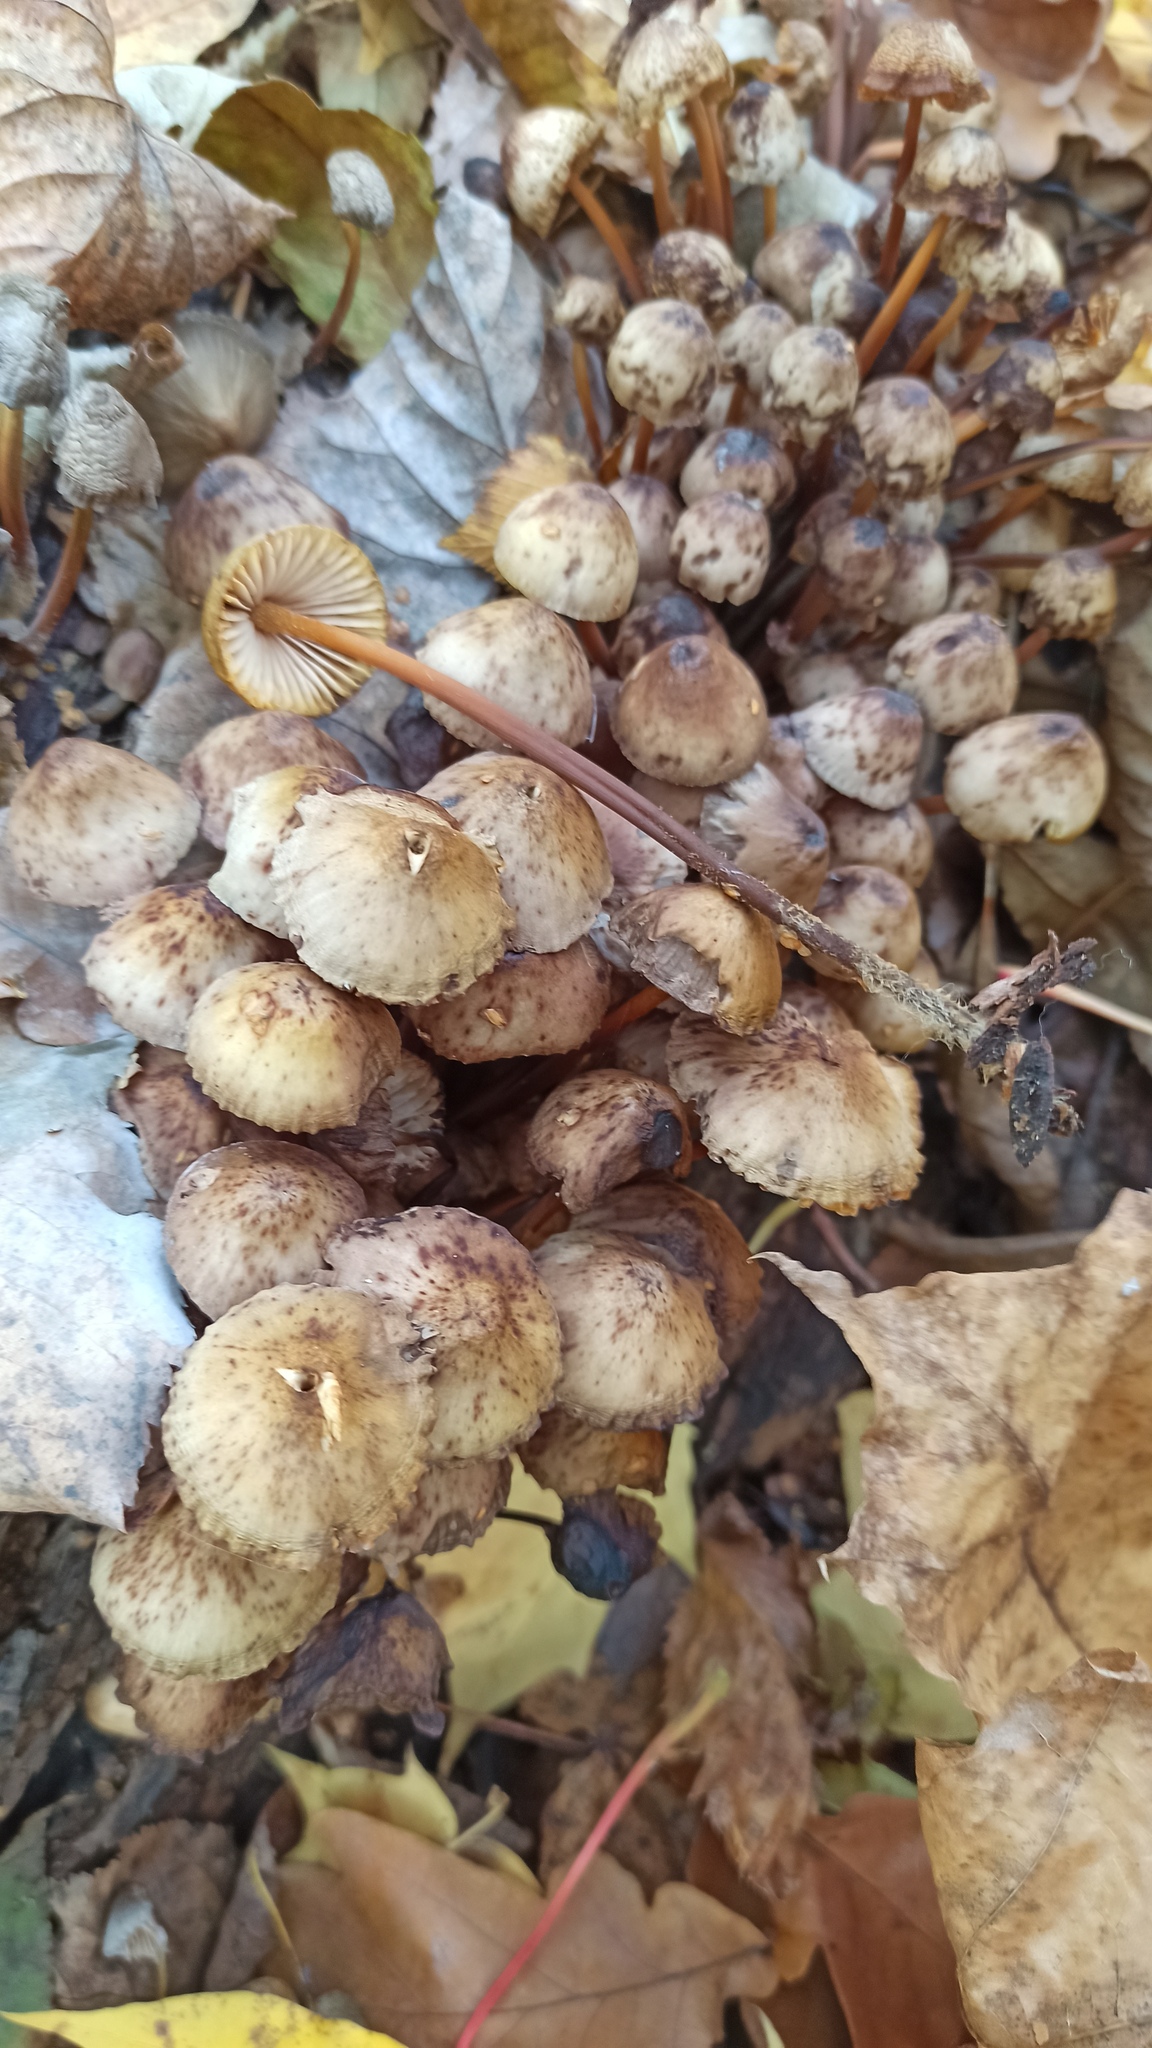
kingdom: Fungi
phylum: Basidiomycota
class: Agaricomycetes
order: Agaricales
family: Mycenaceae
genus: Mycena
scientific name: Mycena inclinata
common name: Clustered bonnet
